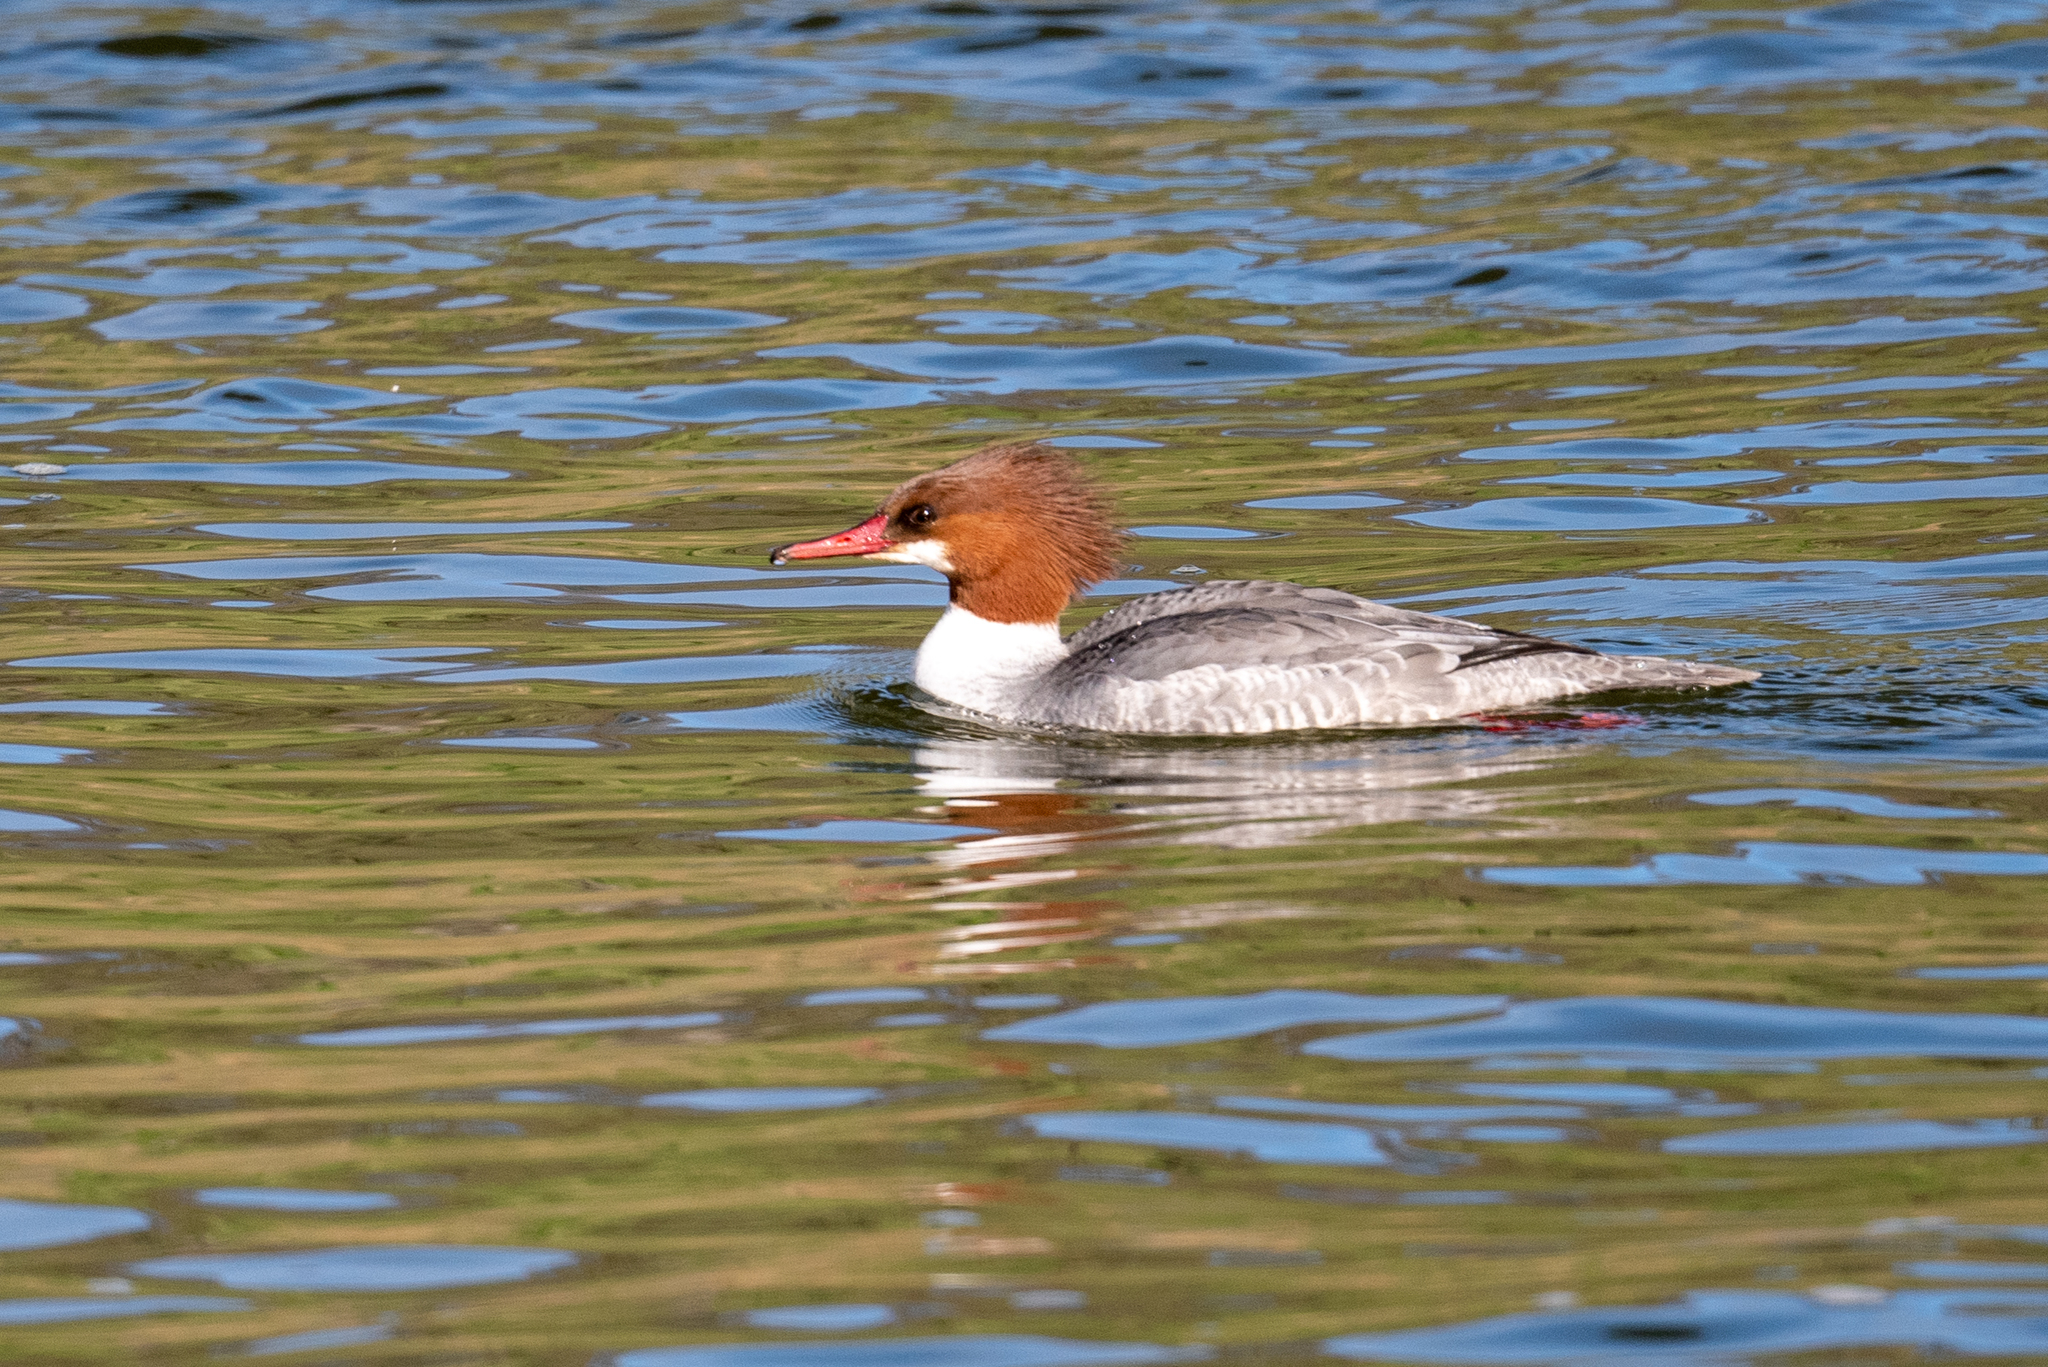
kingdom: Animalia
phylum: Chordata
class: Aves
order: Anseriformes
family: Anatidae
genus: Mergus
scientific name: Mergus merganser
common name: Common merganser
